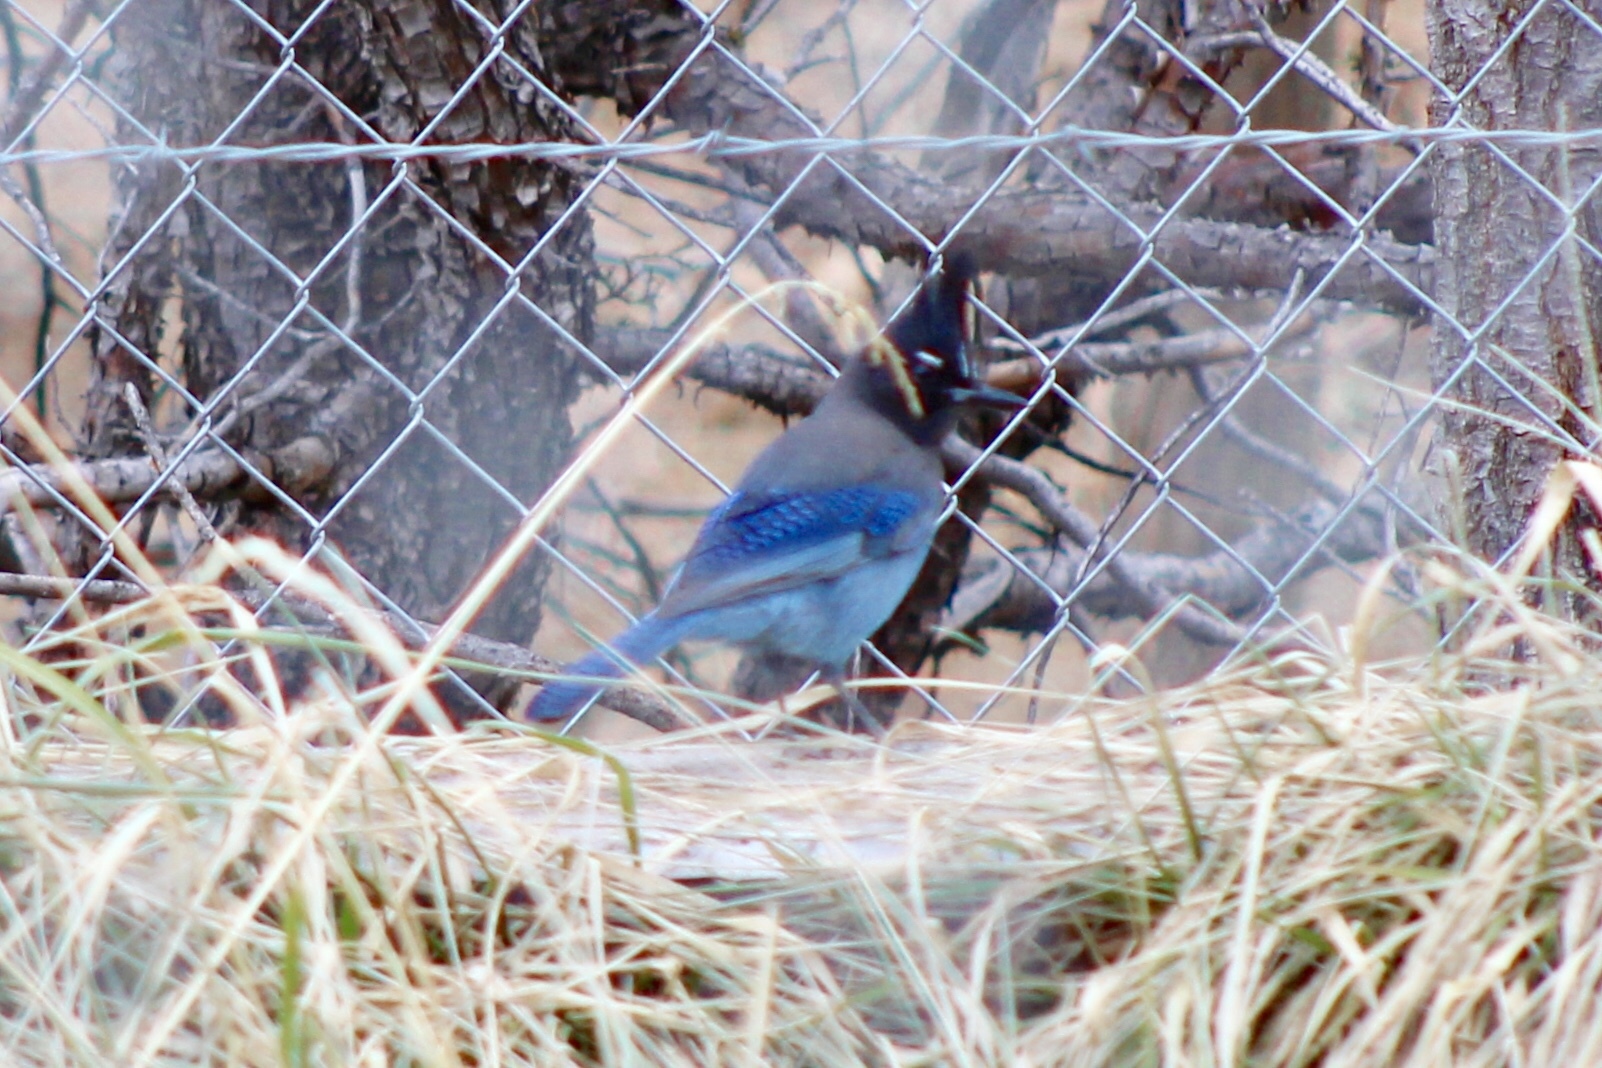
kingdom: Animalia
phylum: Chordata
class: Aves
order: Passeriformes
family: Corvidae
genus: Cyanocitta
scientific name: Cyanocitta stelleri
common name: Steller's jay
